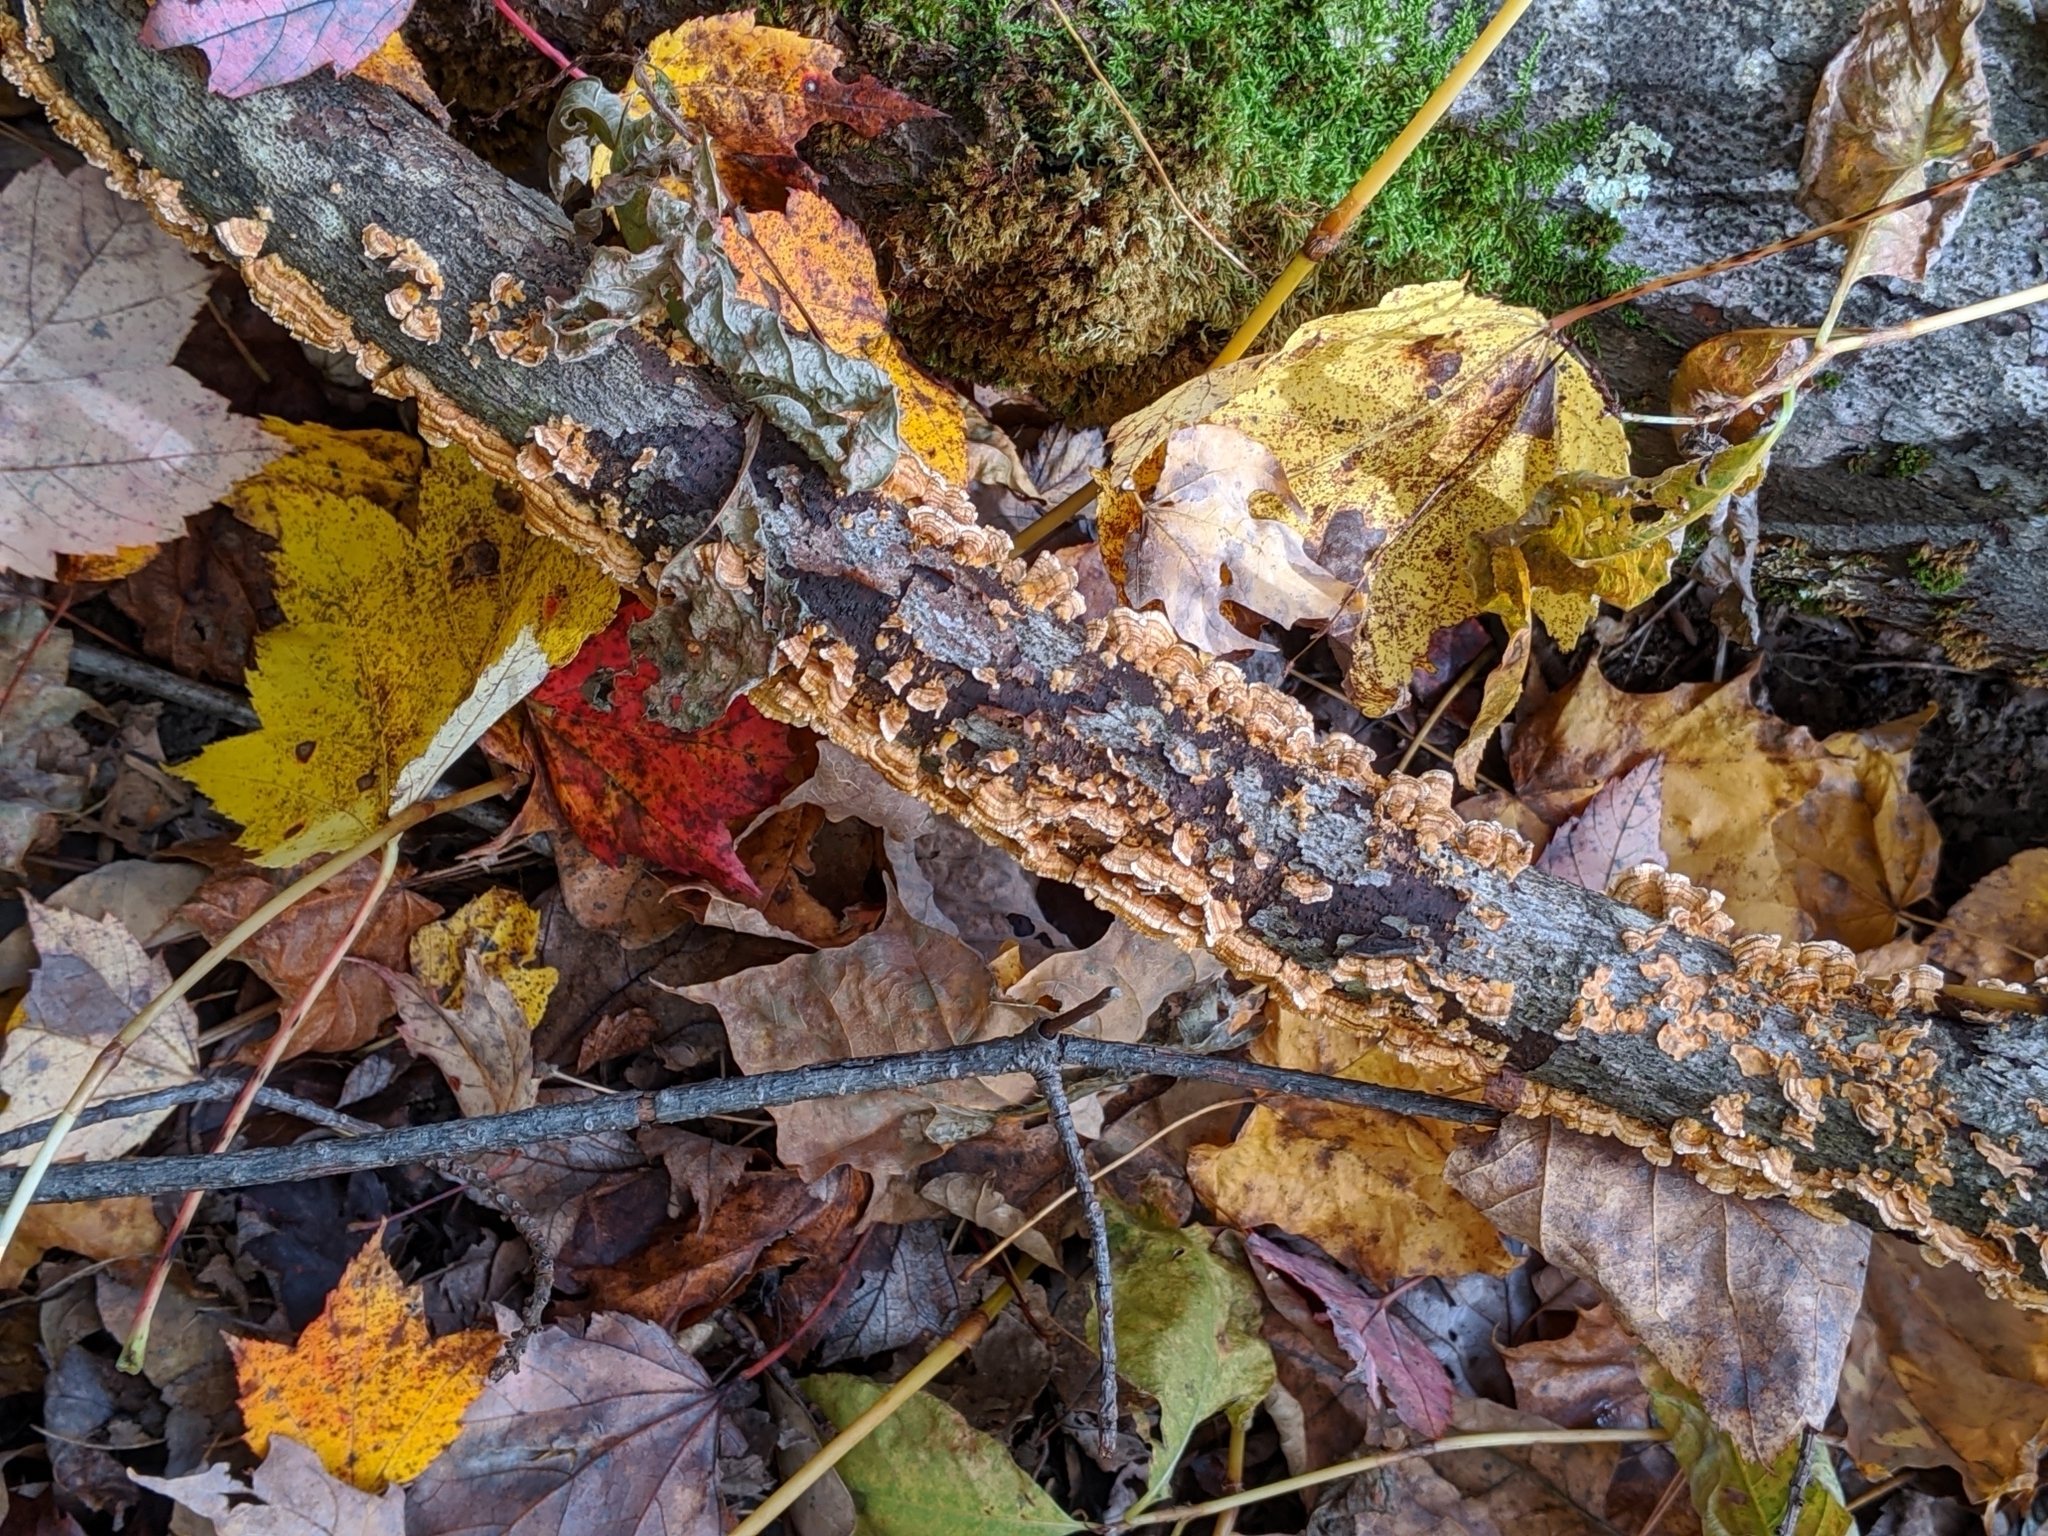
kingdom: Fungi
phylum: Basidiomycota
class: Agaricomycetes
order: Russulales
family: Stereaceae
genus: Stereum
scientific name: Stereum complicatum
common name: Crowded parchment
